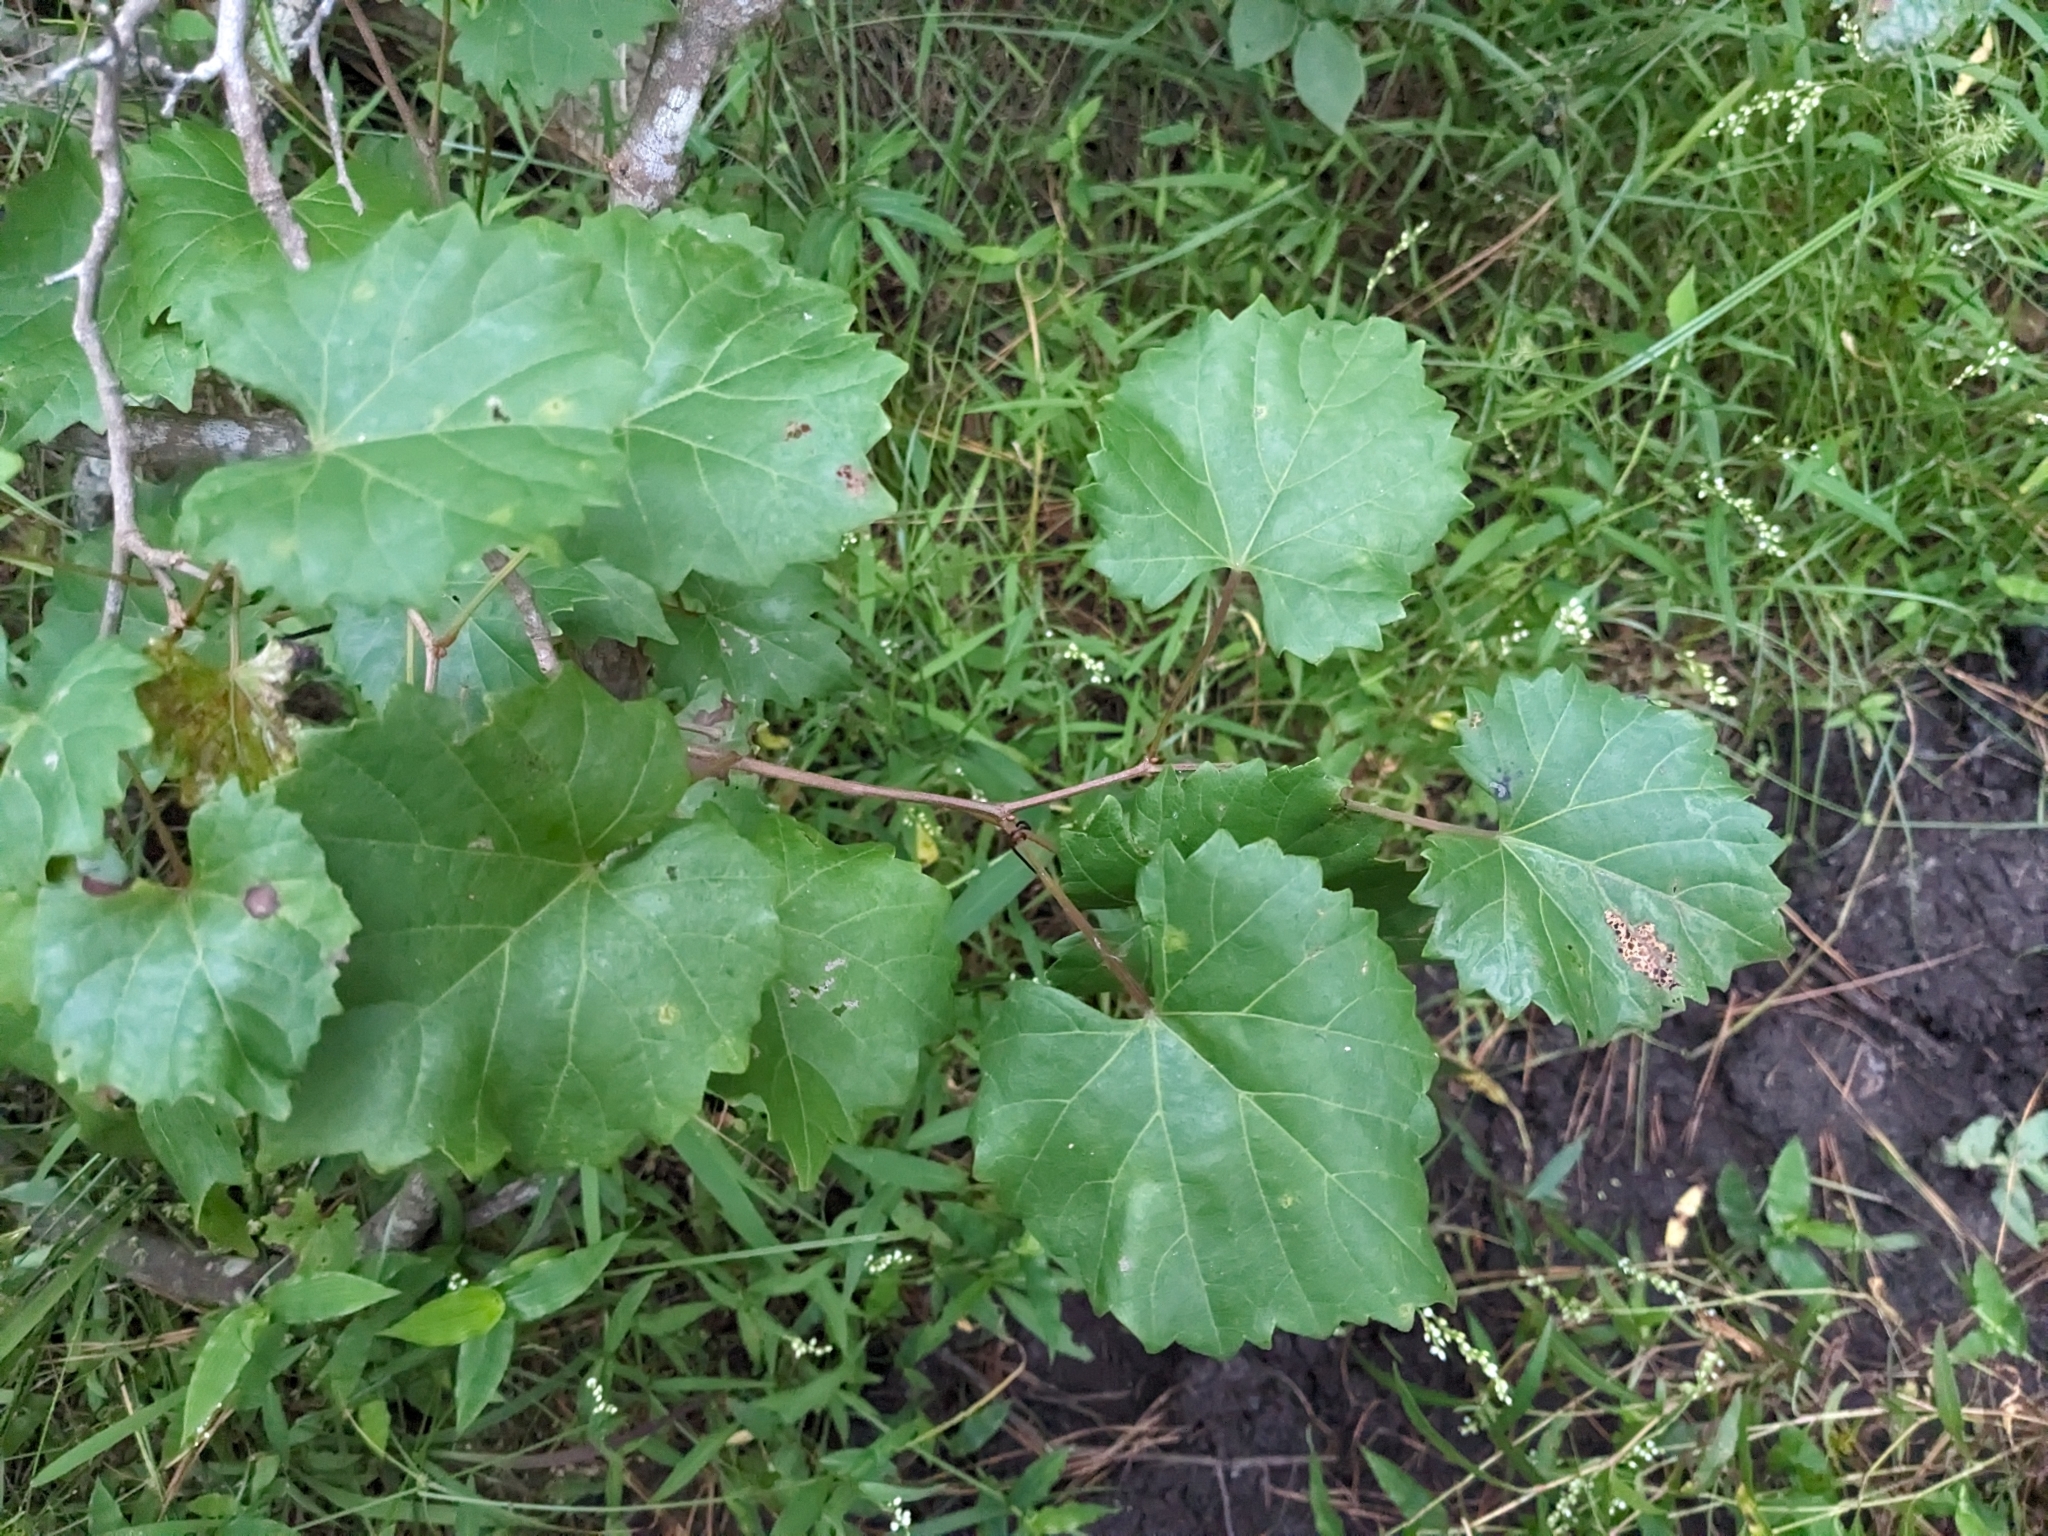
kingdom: Plantae
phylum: Tracheophyta
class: Magnoliopsida
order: Vitales
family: Vitaceae
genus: Vitis
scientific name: Vitis rotundifolia
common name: Muscadine grape
